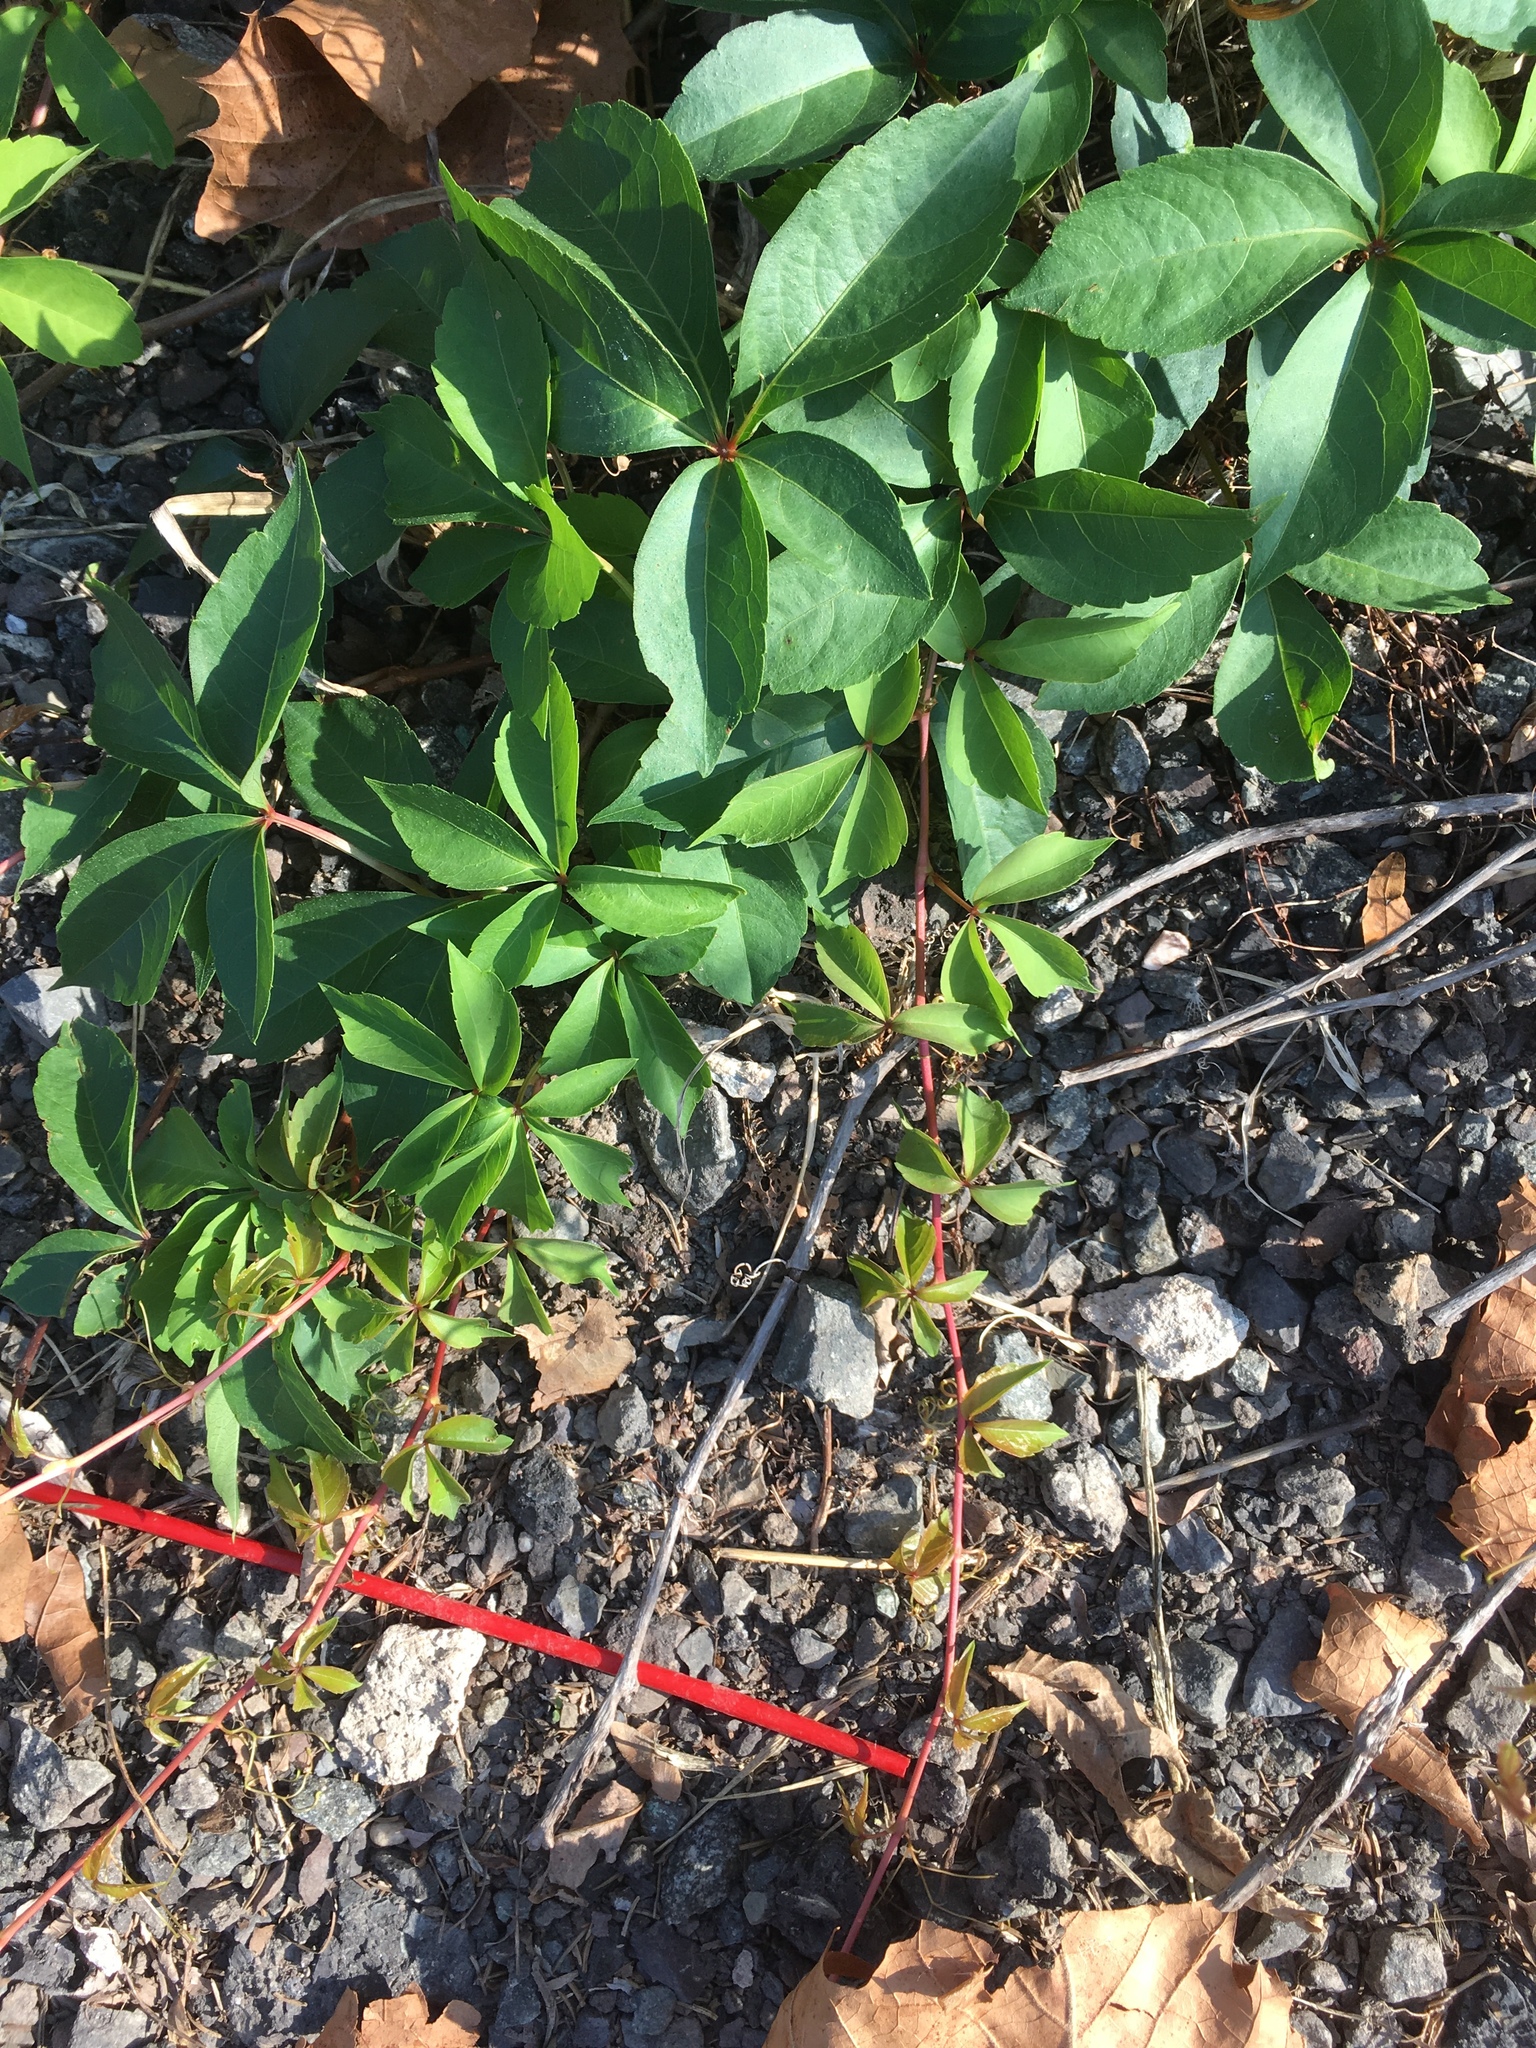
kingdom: Plantae
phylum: Tracheophyta
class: Magnoliopsida
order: Vitales
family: Vitaceae
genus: Parthenocissus
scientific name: Parthenocissus quinquefolia
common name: Virginia-creeper
